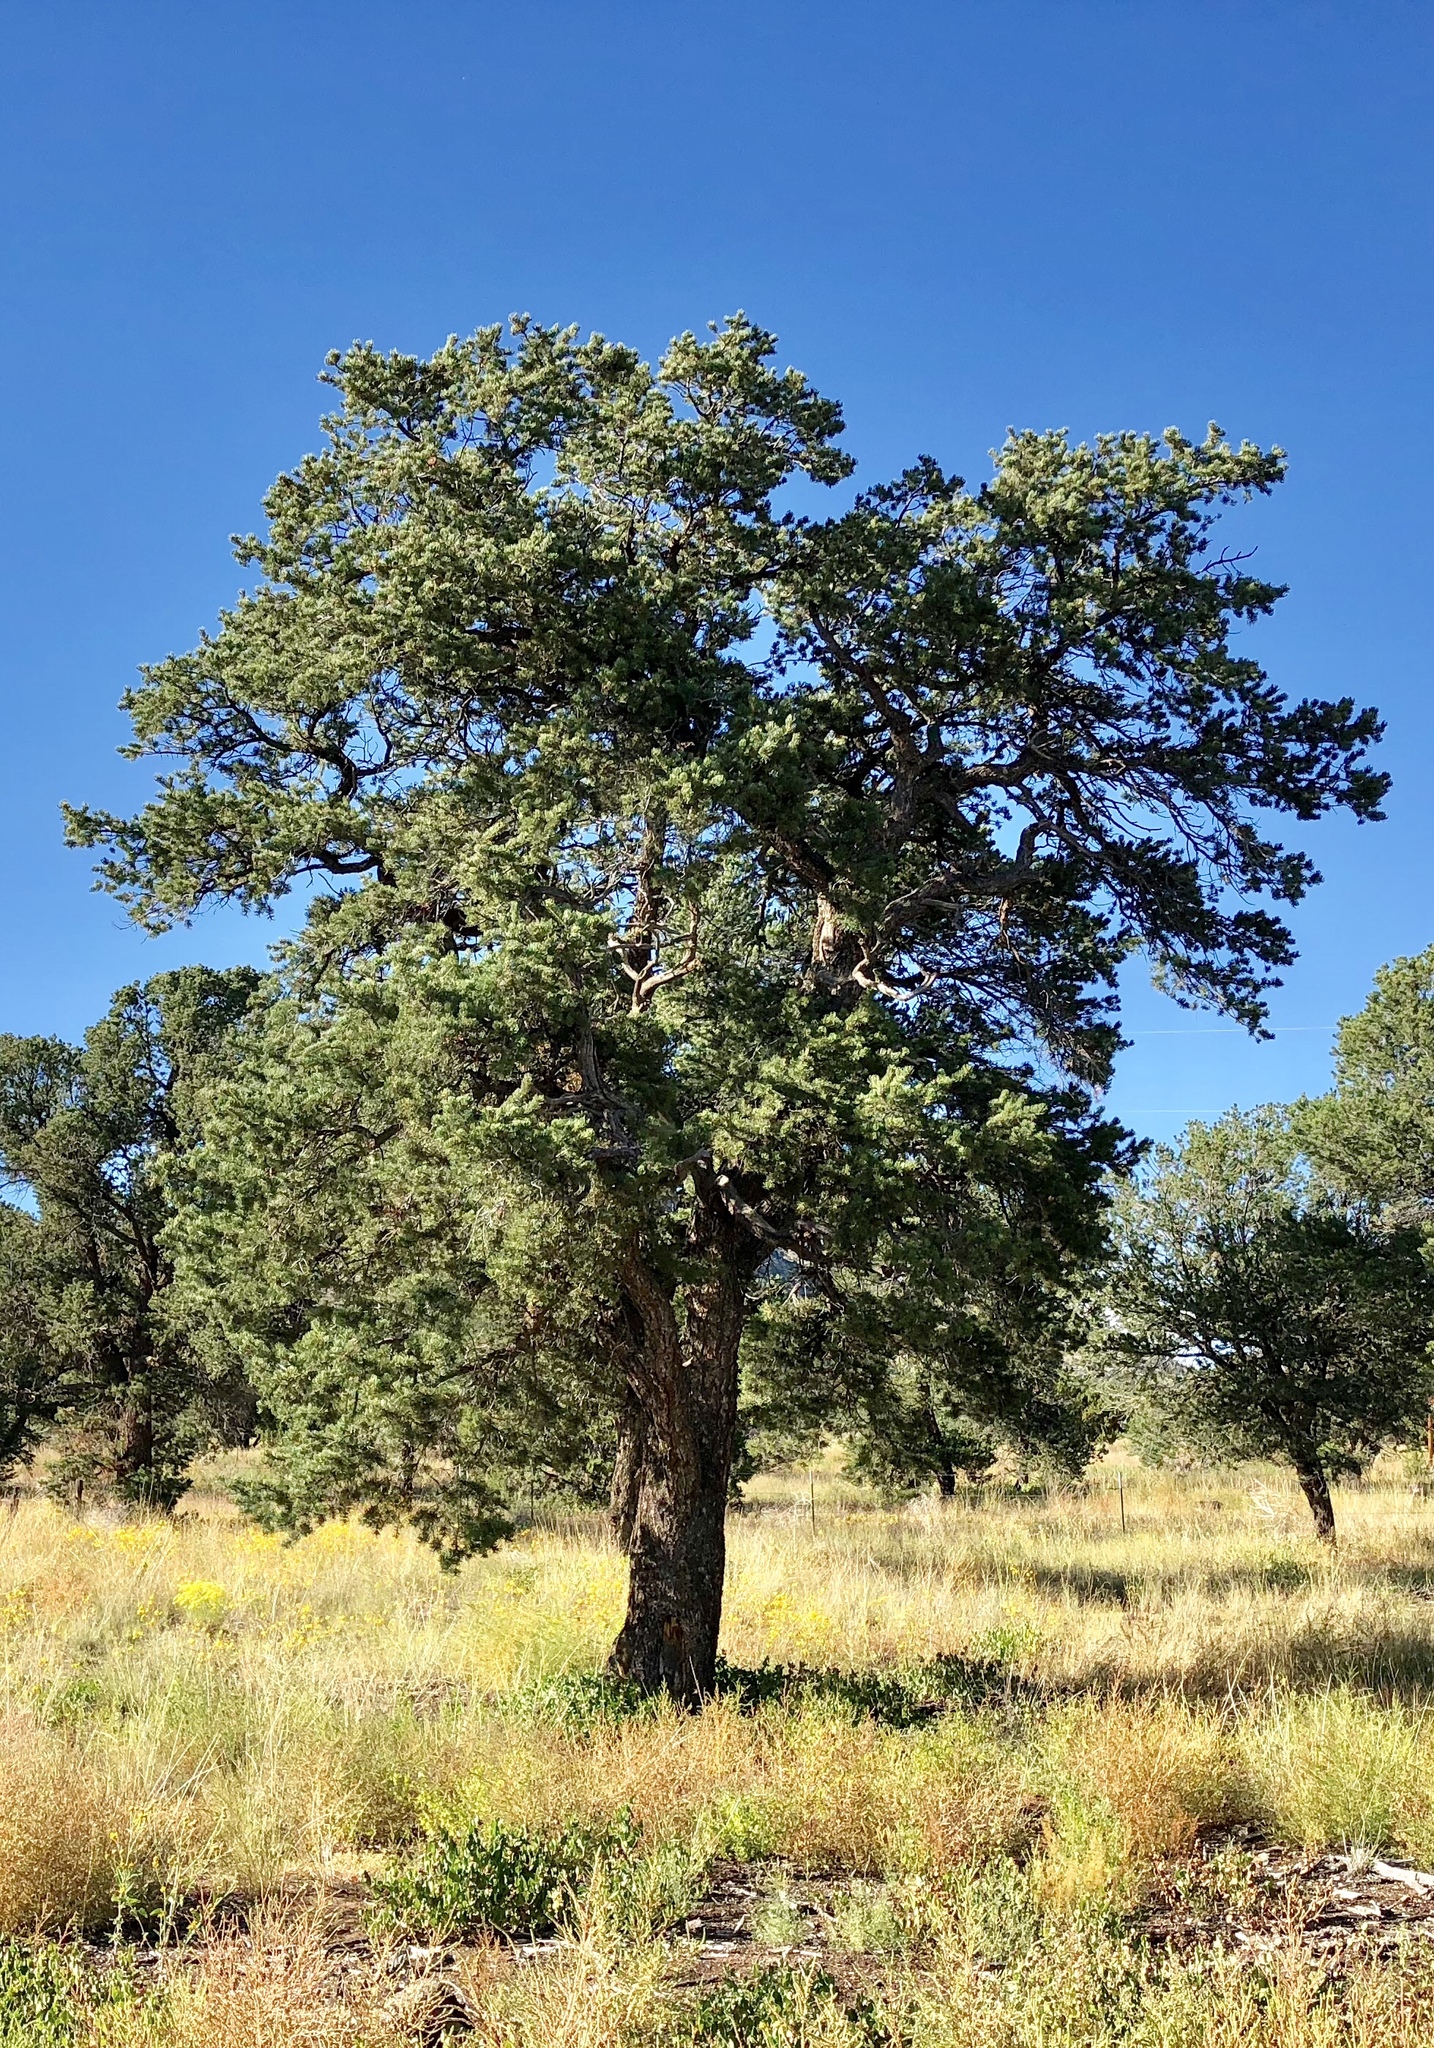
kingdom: Plantae
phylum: Tracheophyta
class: Pinopsida
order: Pinales
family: Pinaceae
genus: Pinus
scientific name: Pinus edulis
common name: Colorado pinyon
